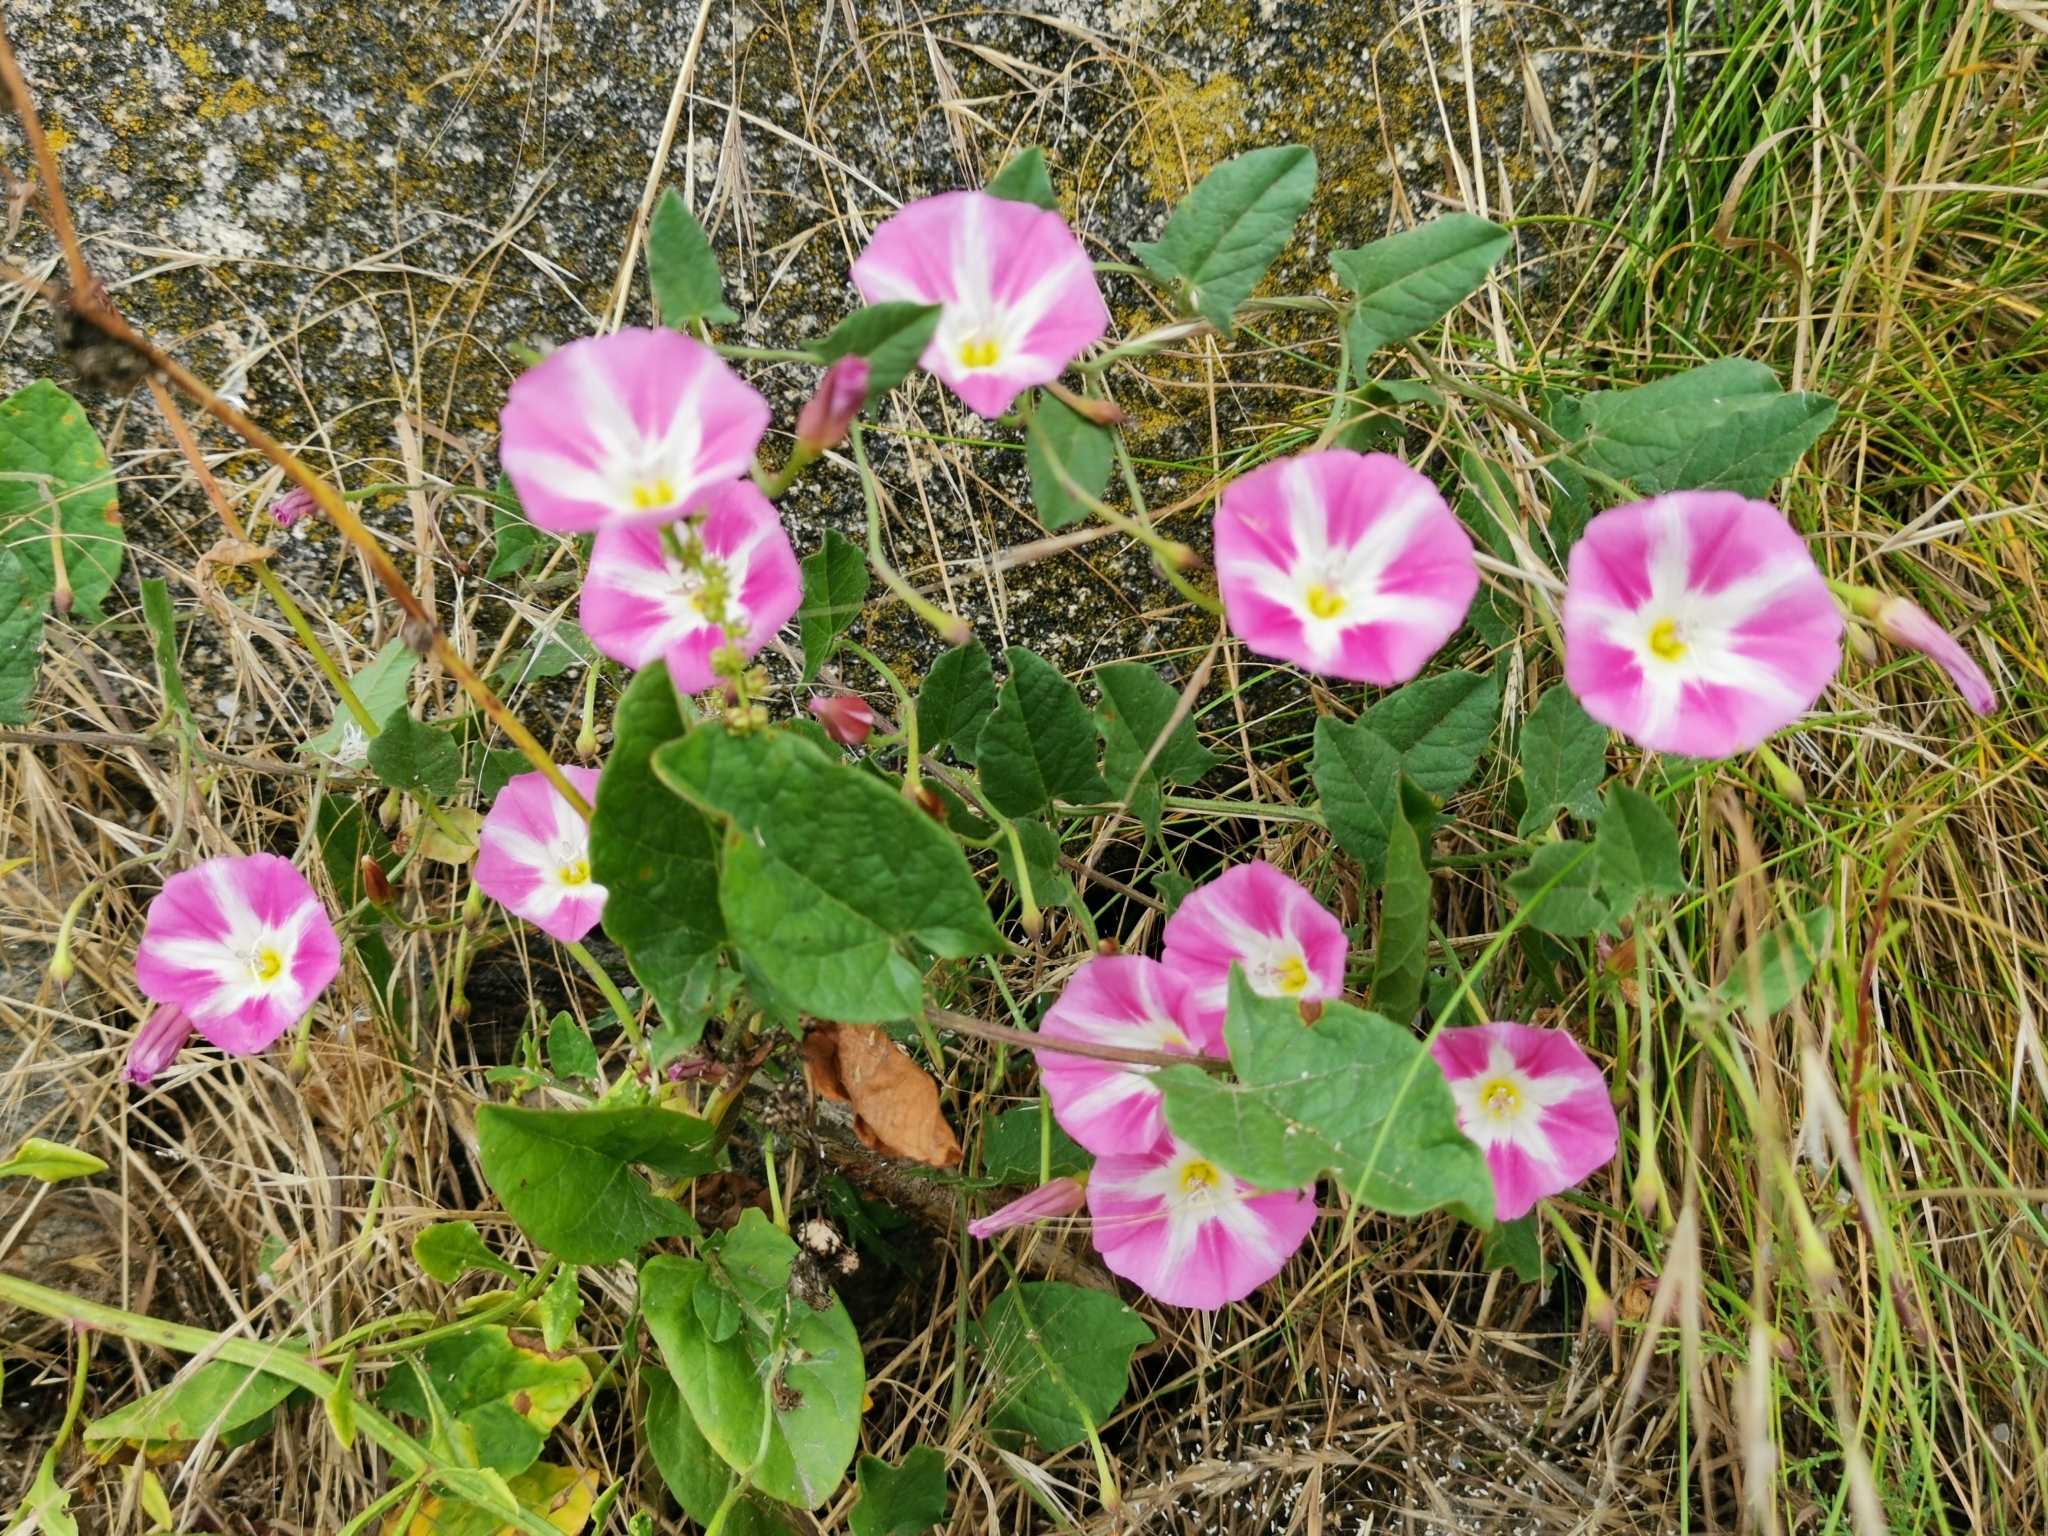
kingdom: Plantae
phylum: Tracheophyta
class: Magnoliopsida
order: Solanales
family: Convolvulaceae
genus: Convolvulus
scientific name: Convolvulus arvensis
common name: Field bindweed
